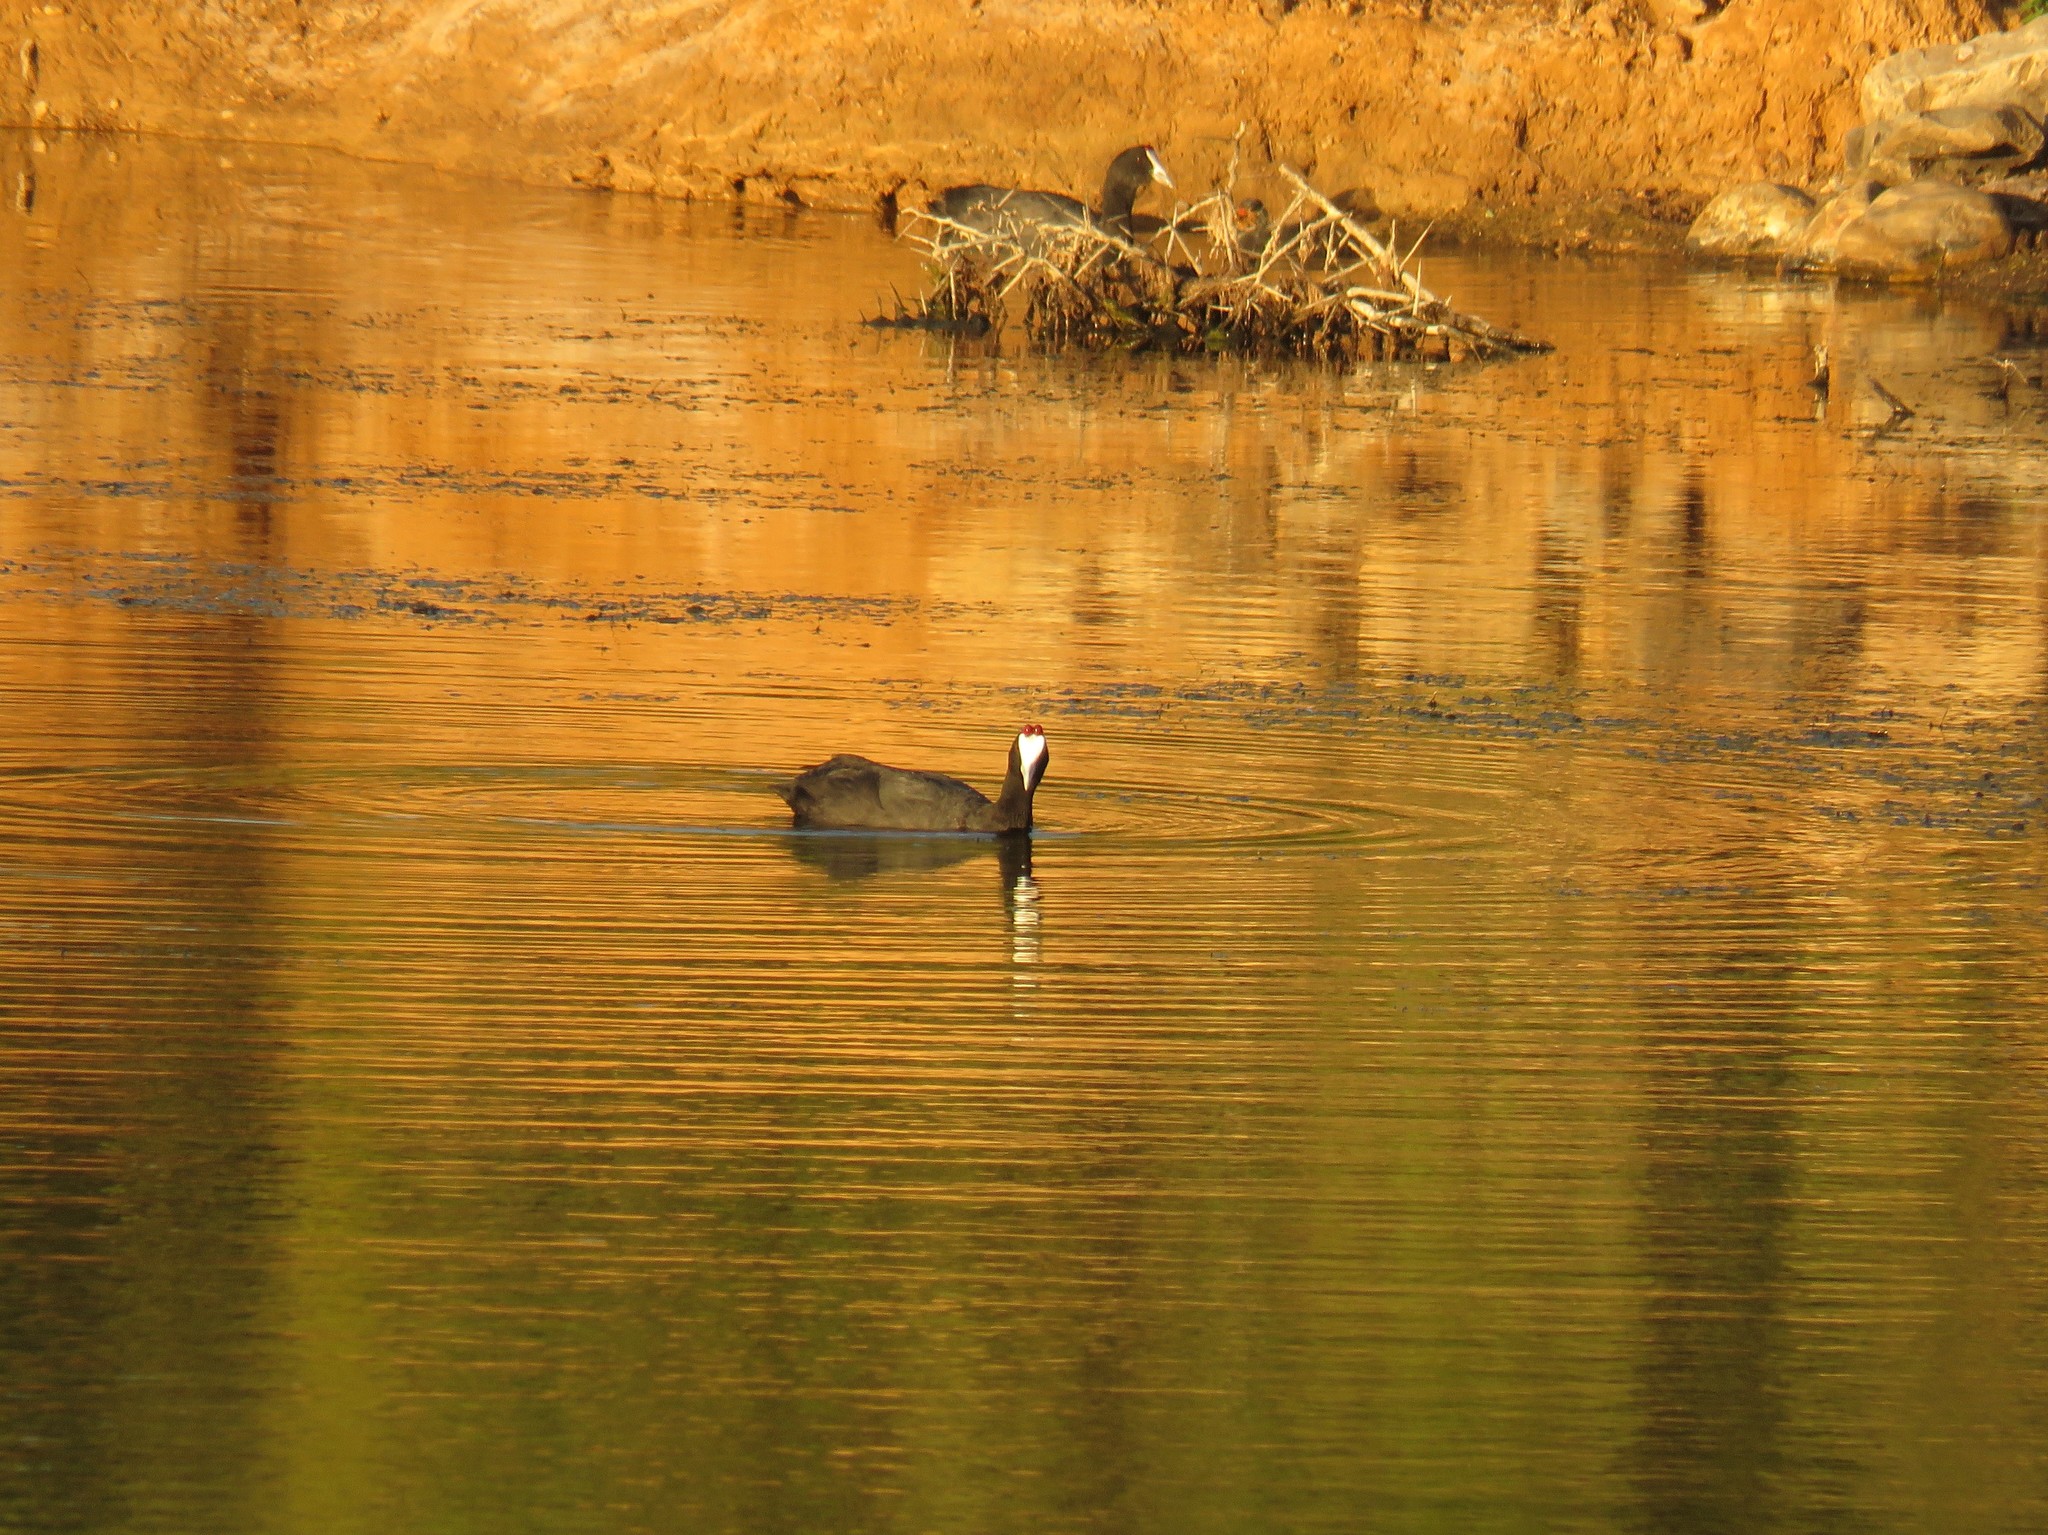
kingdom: Animalia
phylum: Chordata
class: Aves
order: Gruiformes
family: Rallidae
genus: Fulica
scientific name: Fulica cristata
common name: Red-knobbed coot
